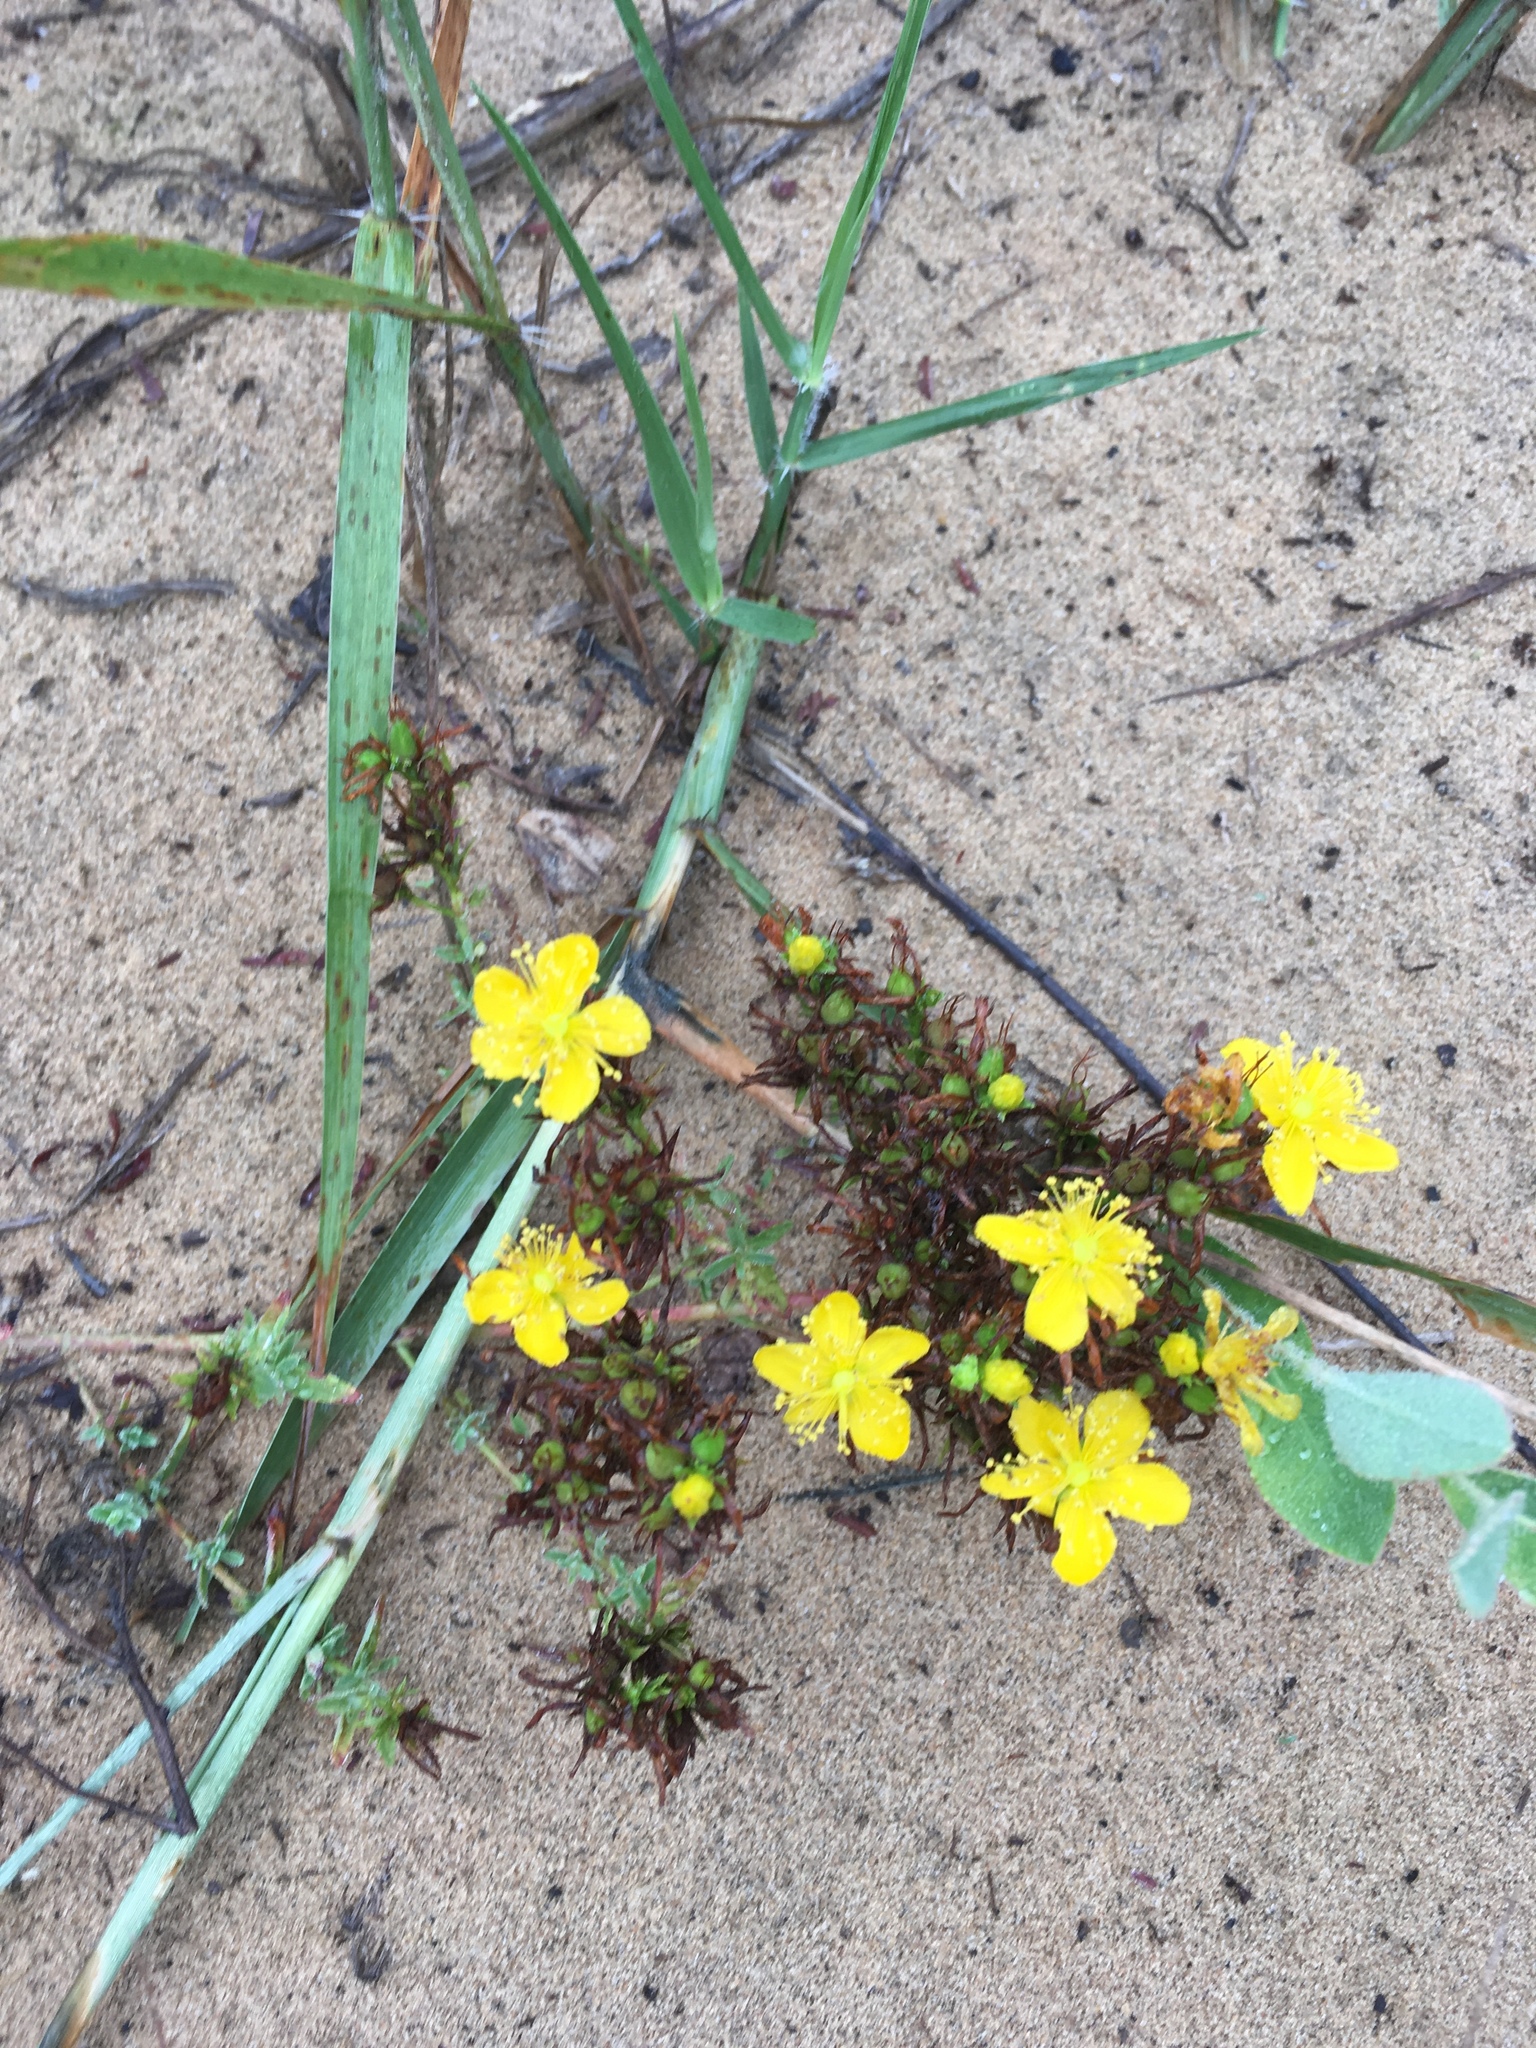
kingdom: Plantae
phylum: Tracheophyta
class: Magnoliopsida
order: Malpighiales
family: Hypericaceae
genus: Hypericum
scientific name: Hypericum perforatum
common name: Common st. johnswort
